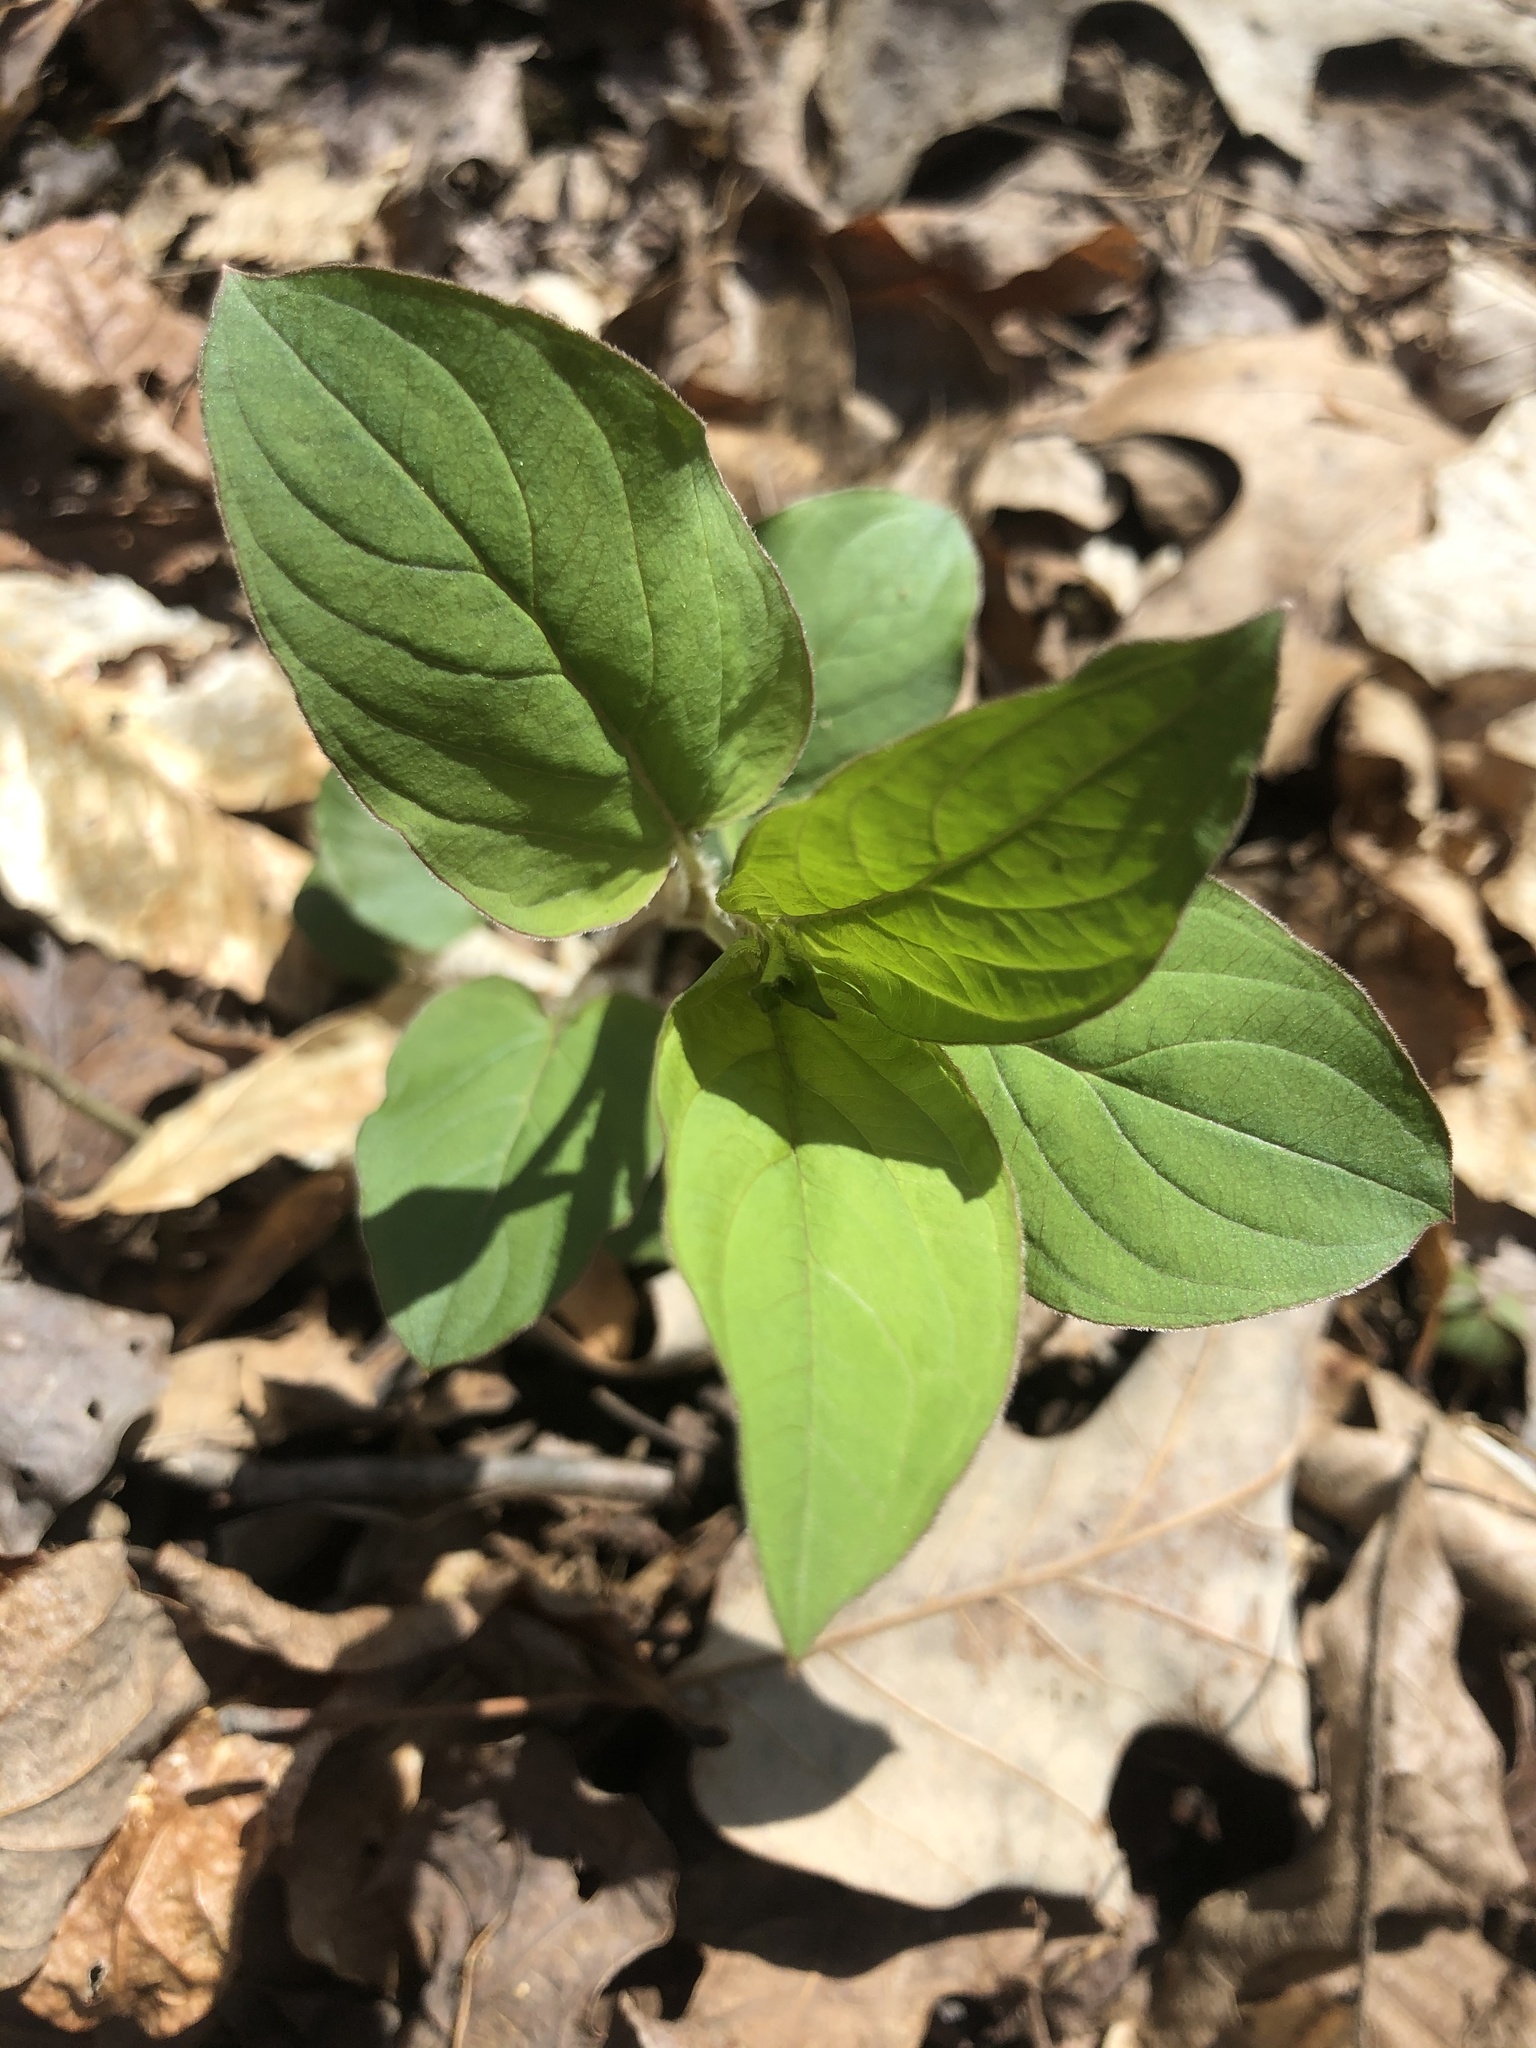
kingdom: Plantae
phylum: Tracheophyta
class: Magnoliopsida
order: Ericales
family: Primulaceae
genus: Lysimachia
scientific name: Lysimachia ciliata
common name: Fringed loosestrife
